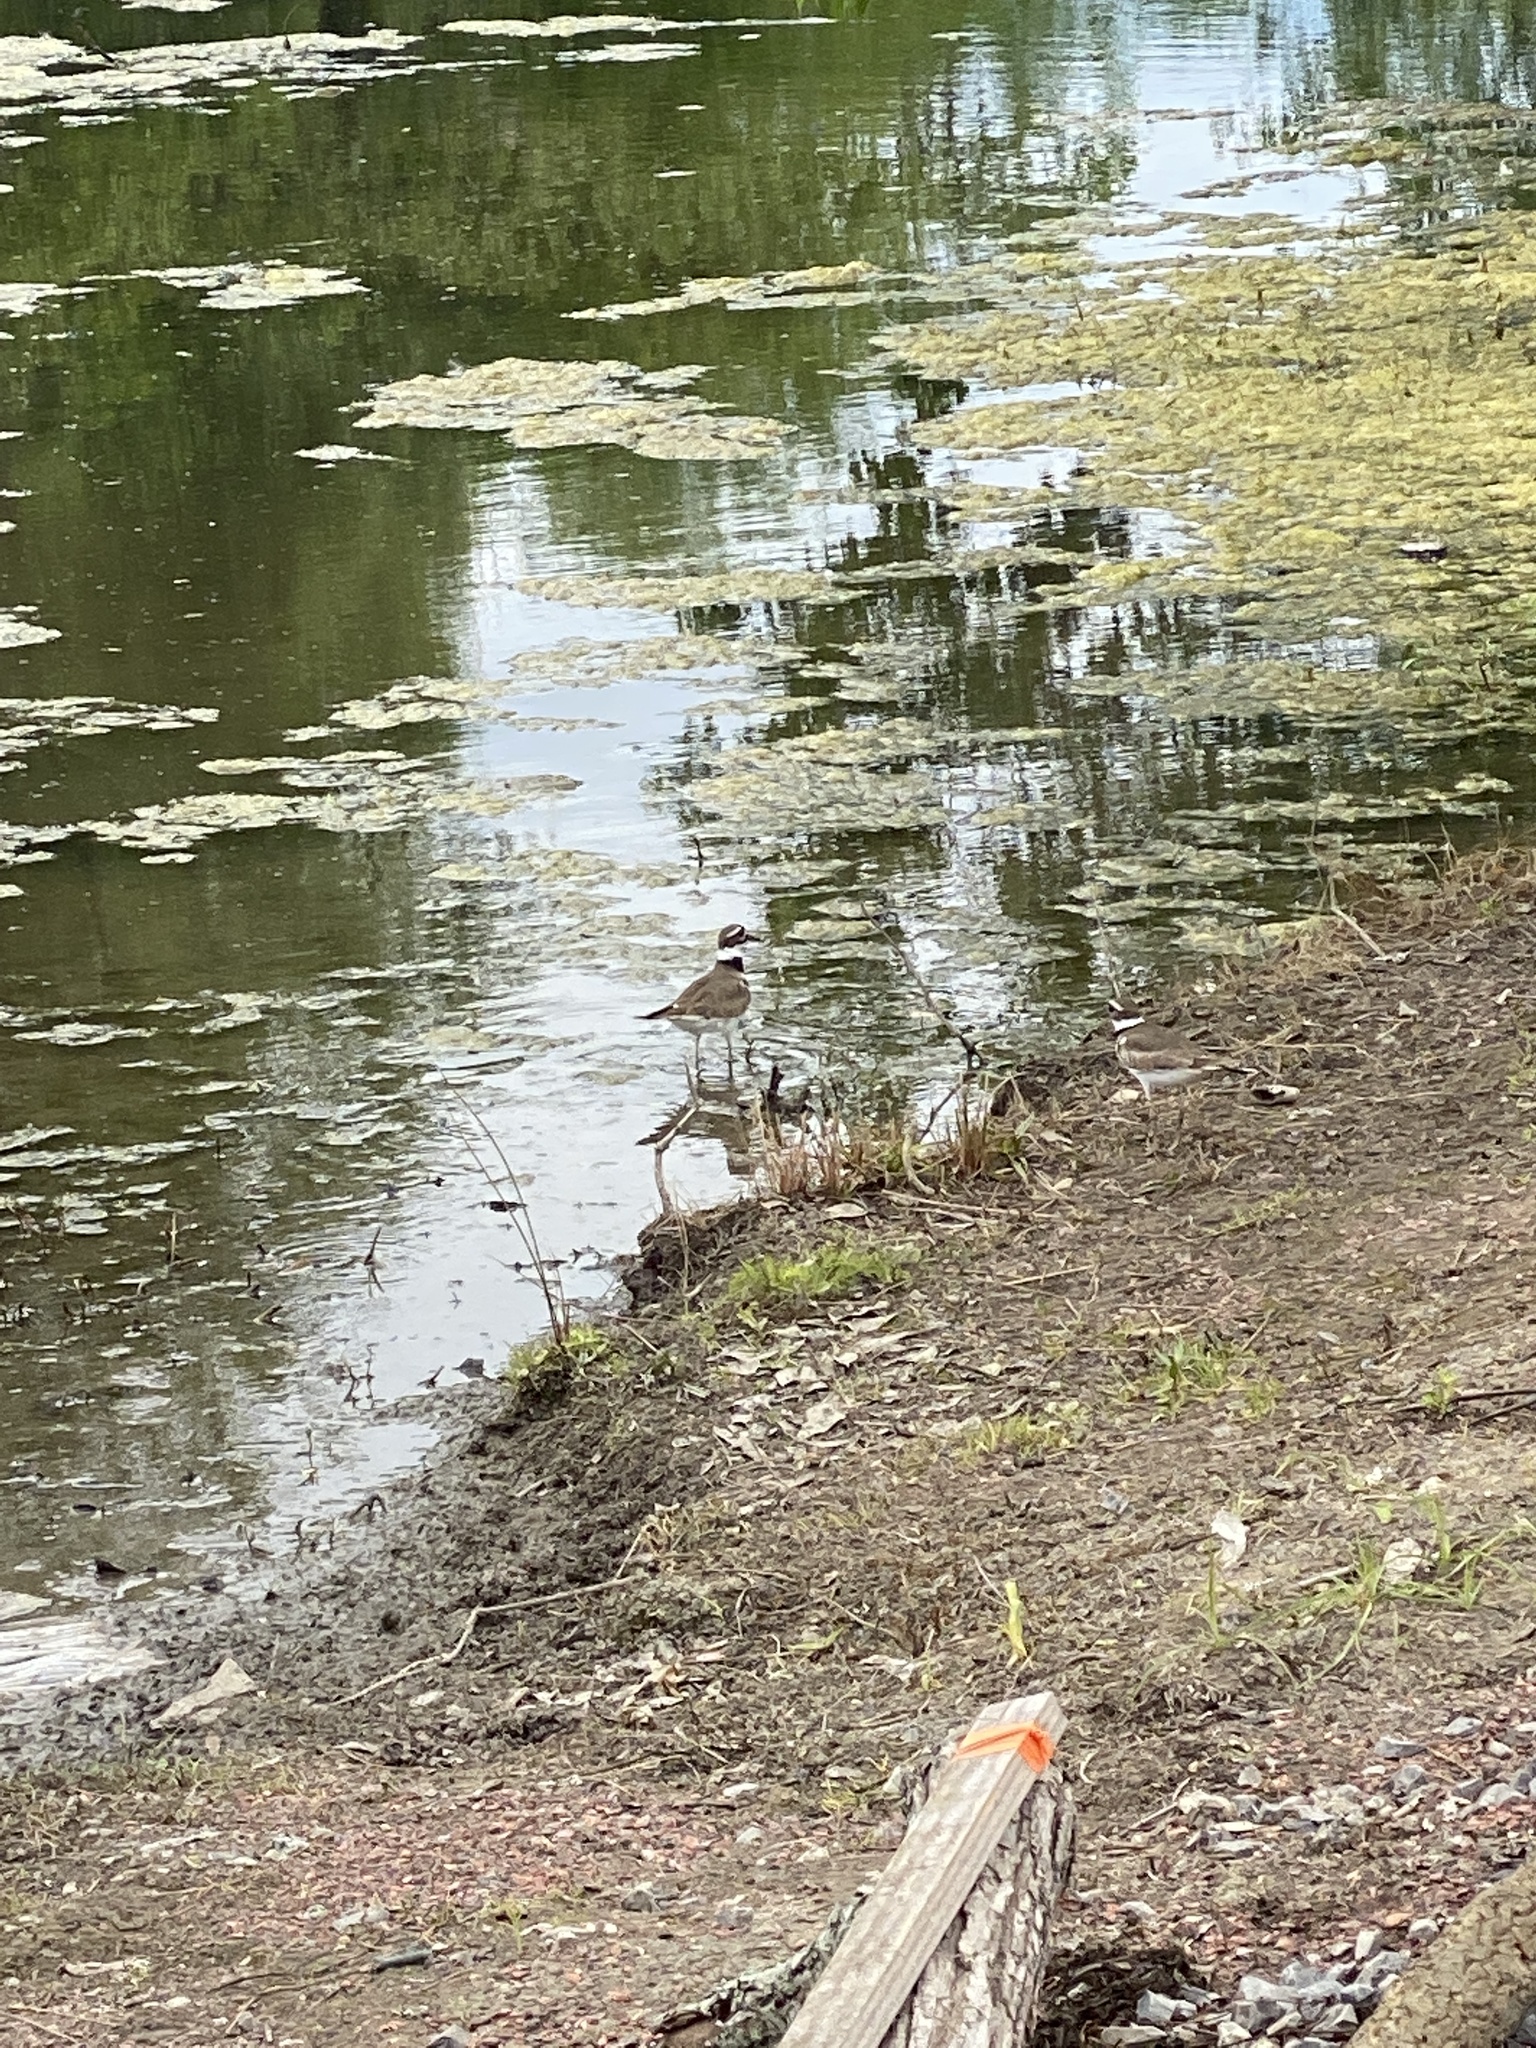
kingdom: Animalia
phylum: Chordata
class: Aves
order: Charadriiformes
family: Charadriidae
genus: Charadrius
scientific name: Charadrius vociferus
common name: Killdeer
